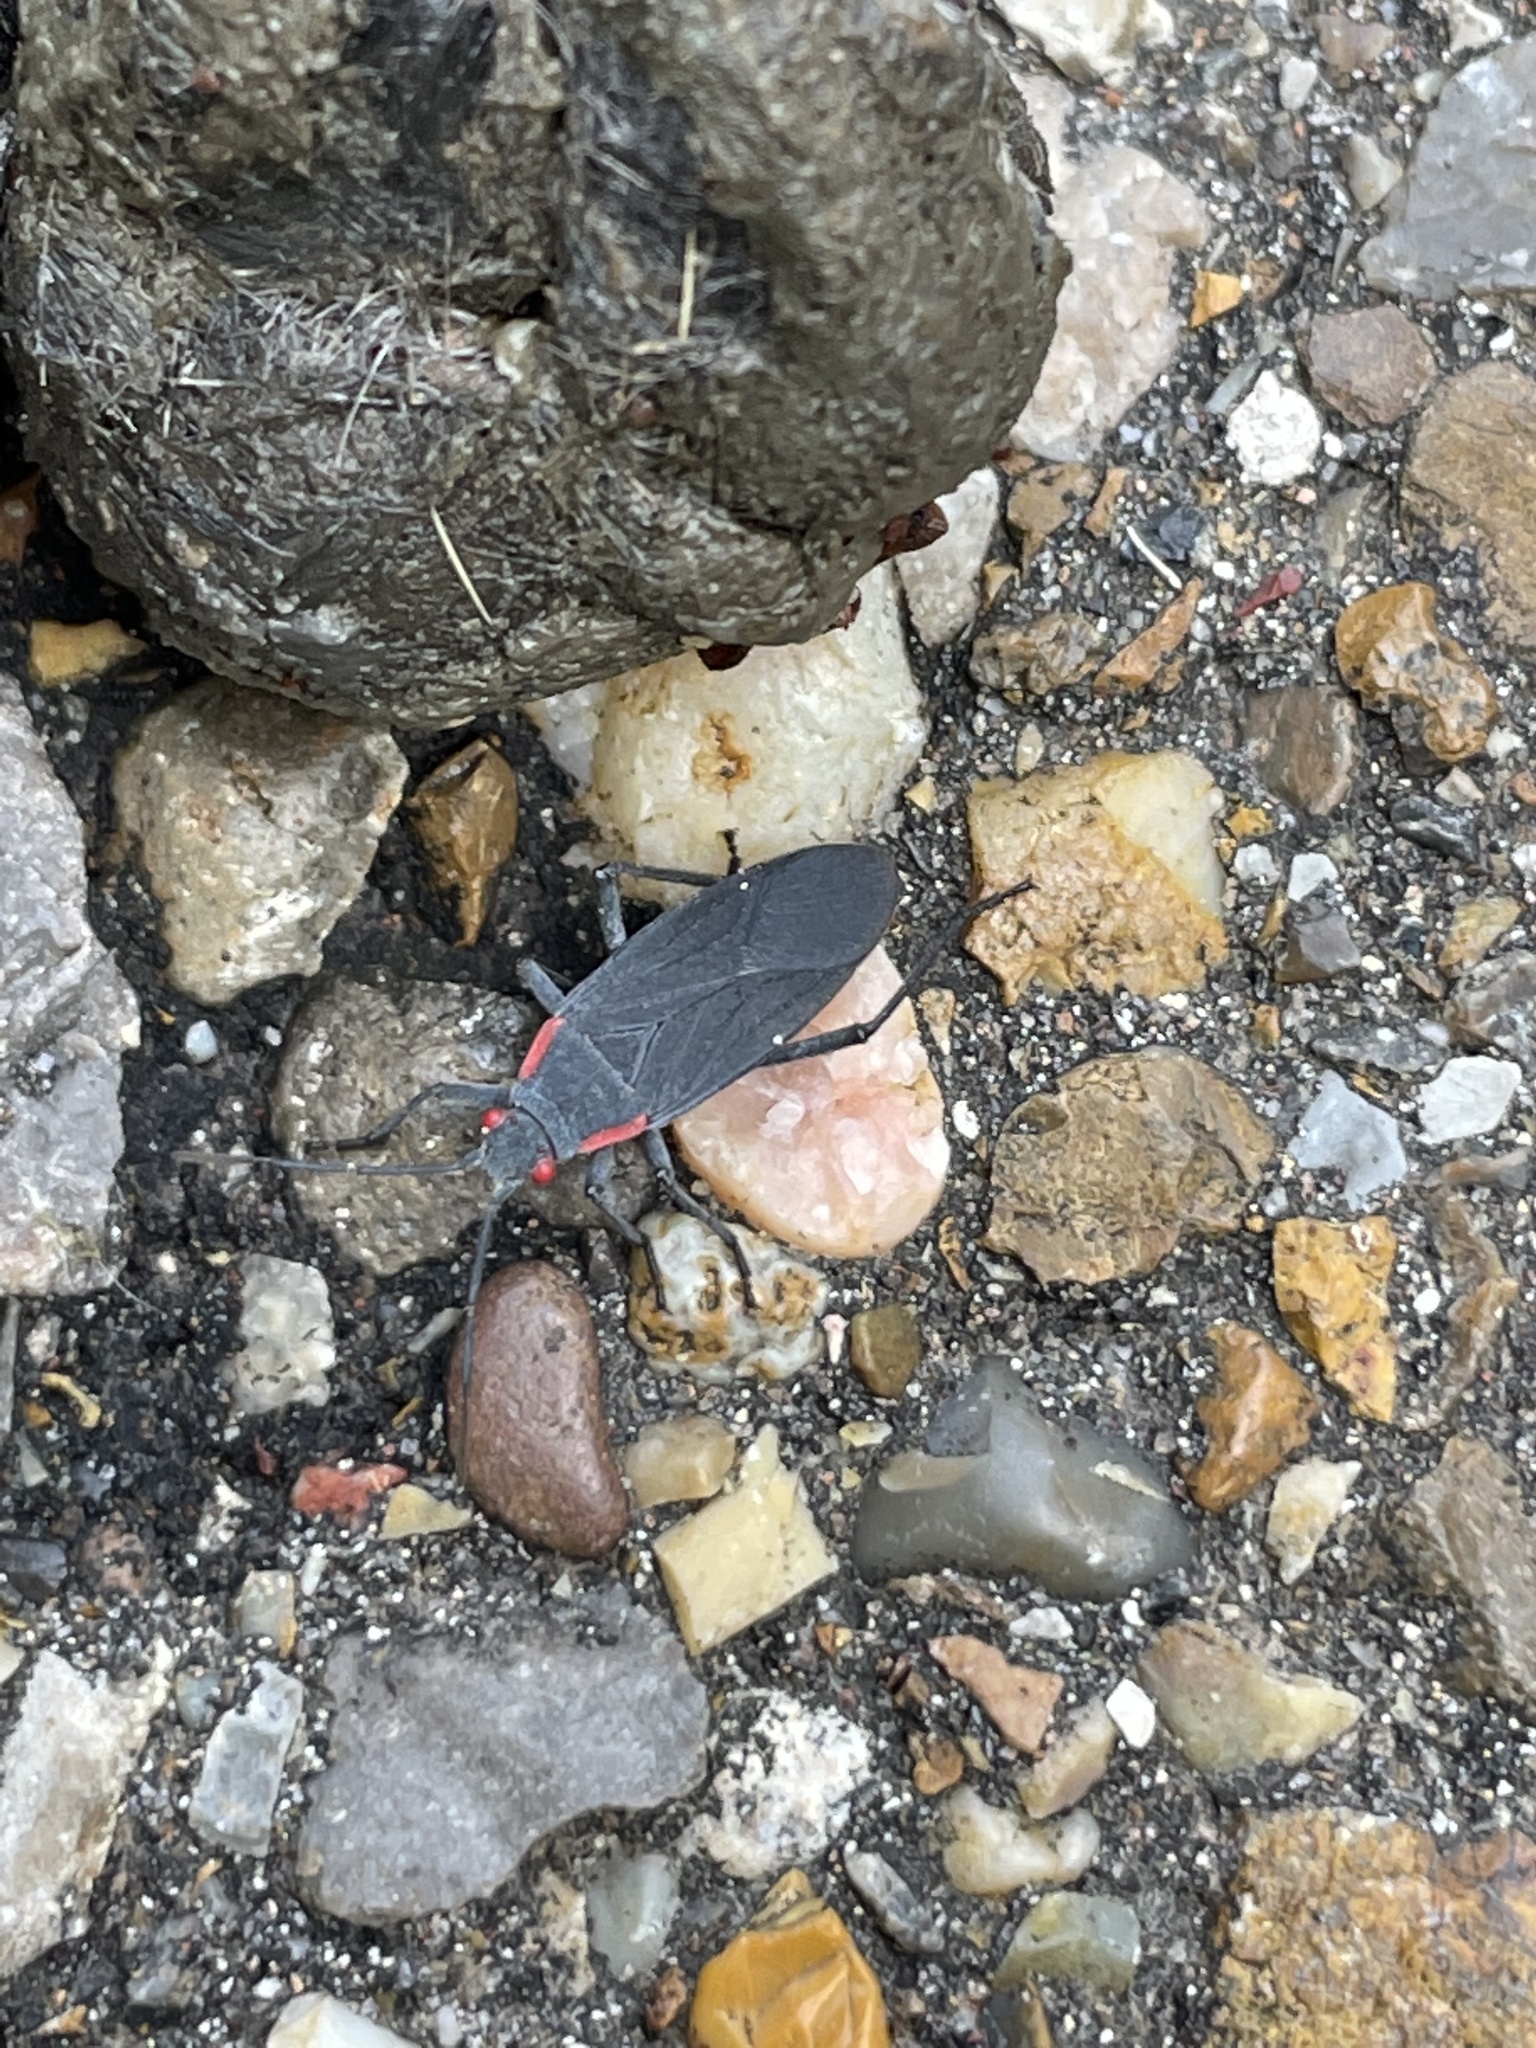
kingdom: Animalia
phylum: Arthropoda
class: Insecta
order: Hemiptera
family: Rhopalidae
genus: Jadera
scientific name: Jadera haematoloma
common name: Red-shouldered bug
